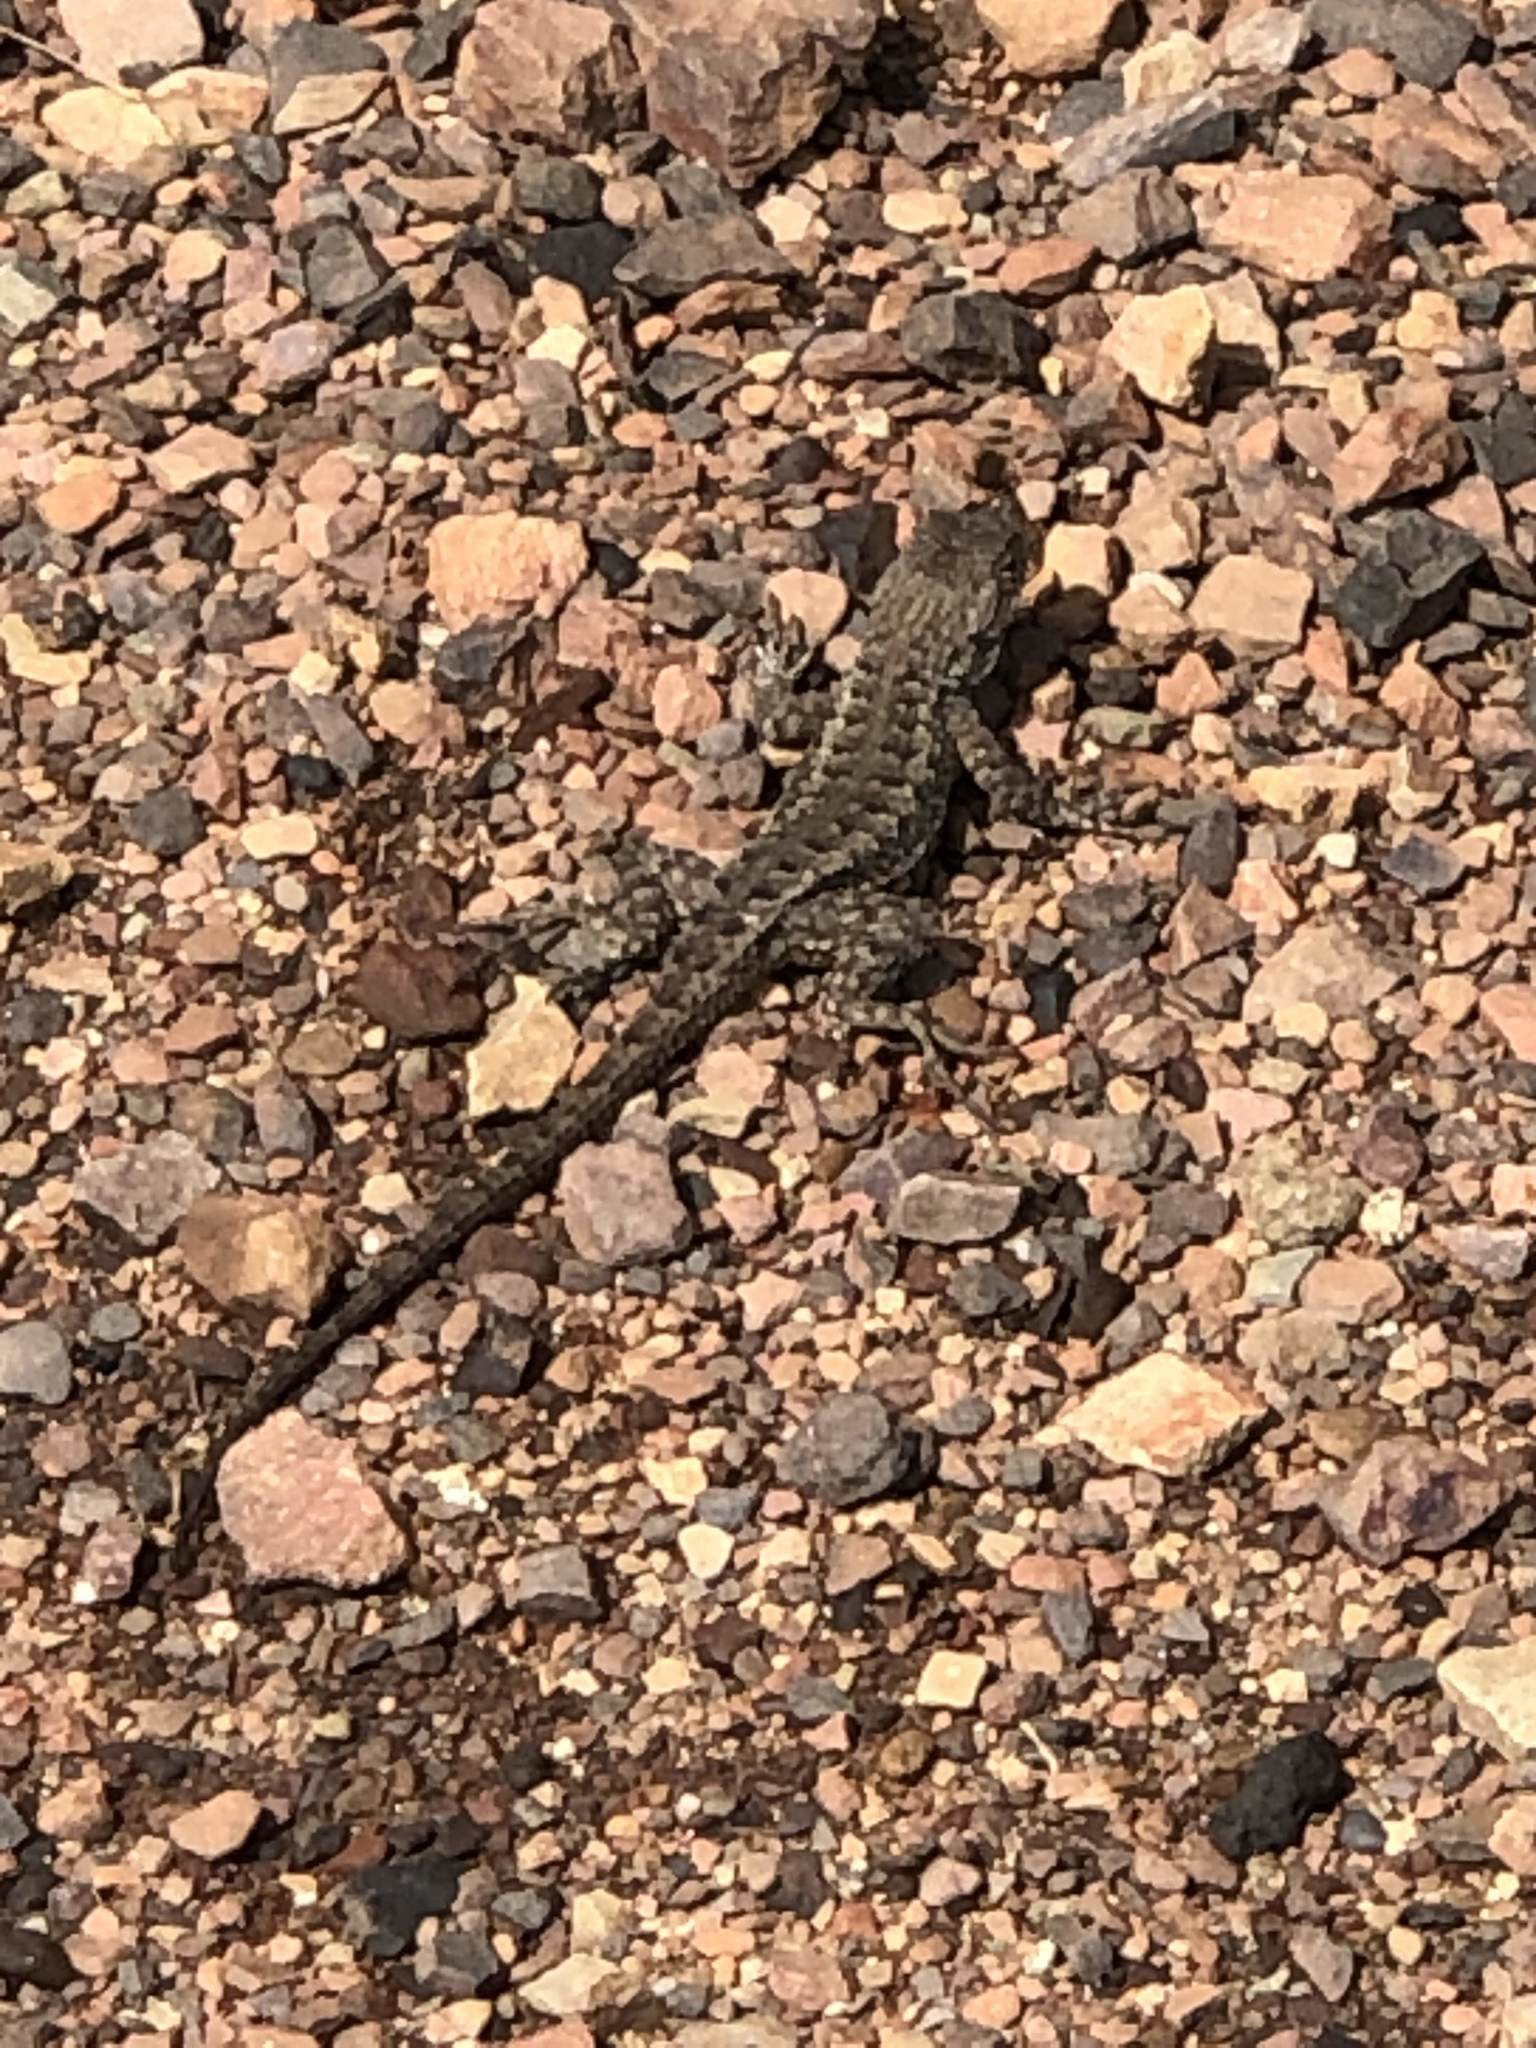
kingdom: Animalia
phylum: Chordata
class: Squamata
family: Phrynosomatidae
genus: Sceloporus
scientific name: Sceloporus occidentalis
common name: Western fence lizard
